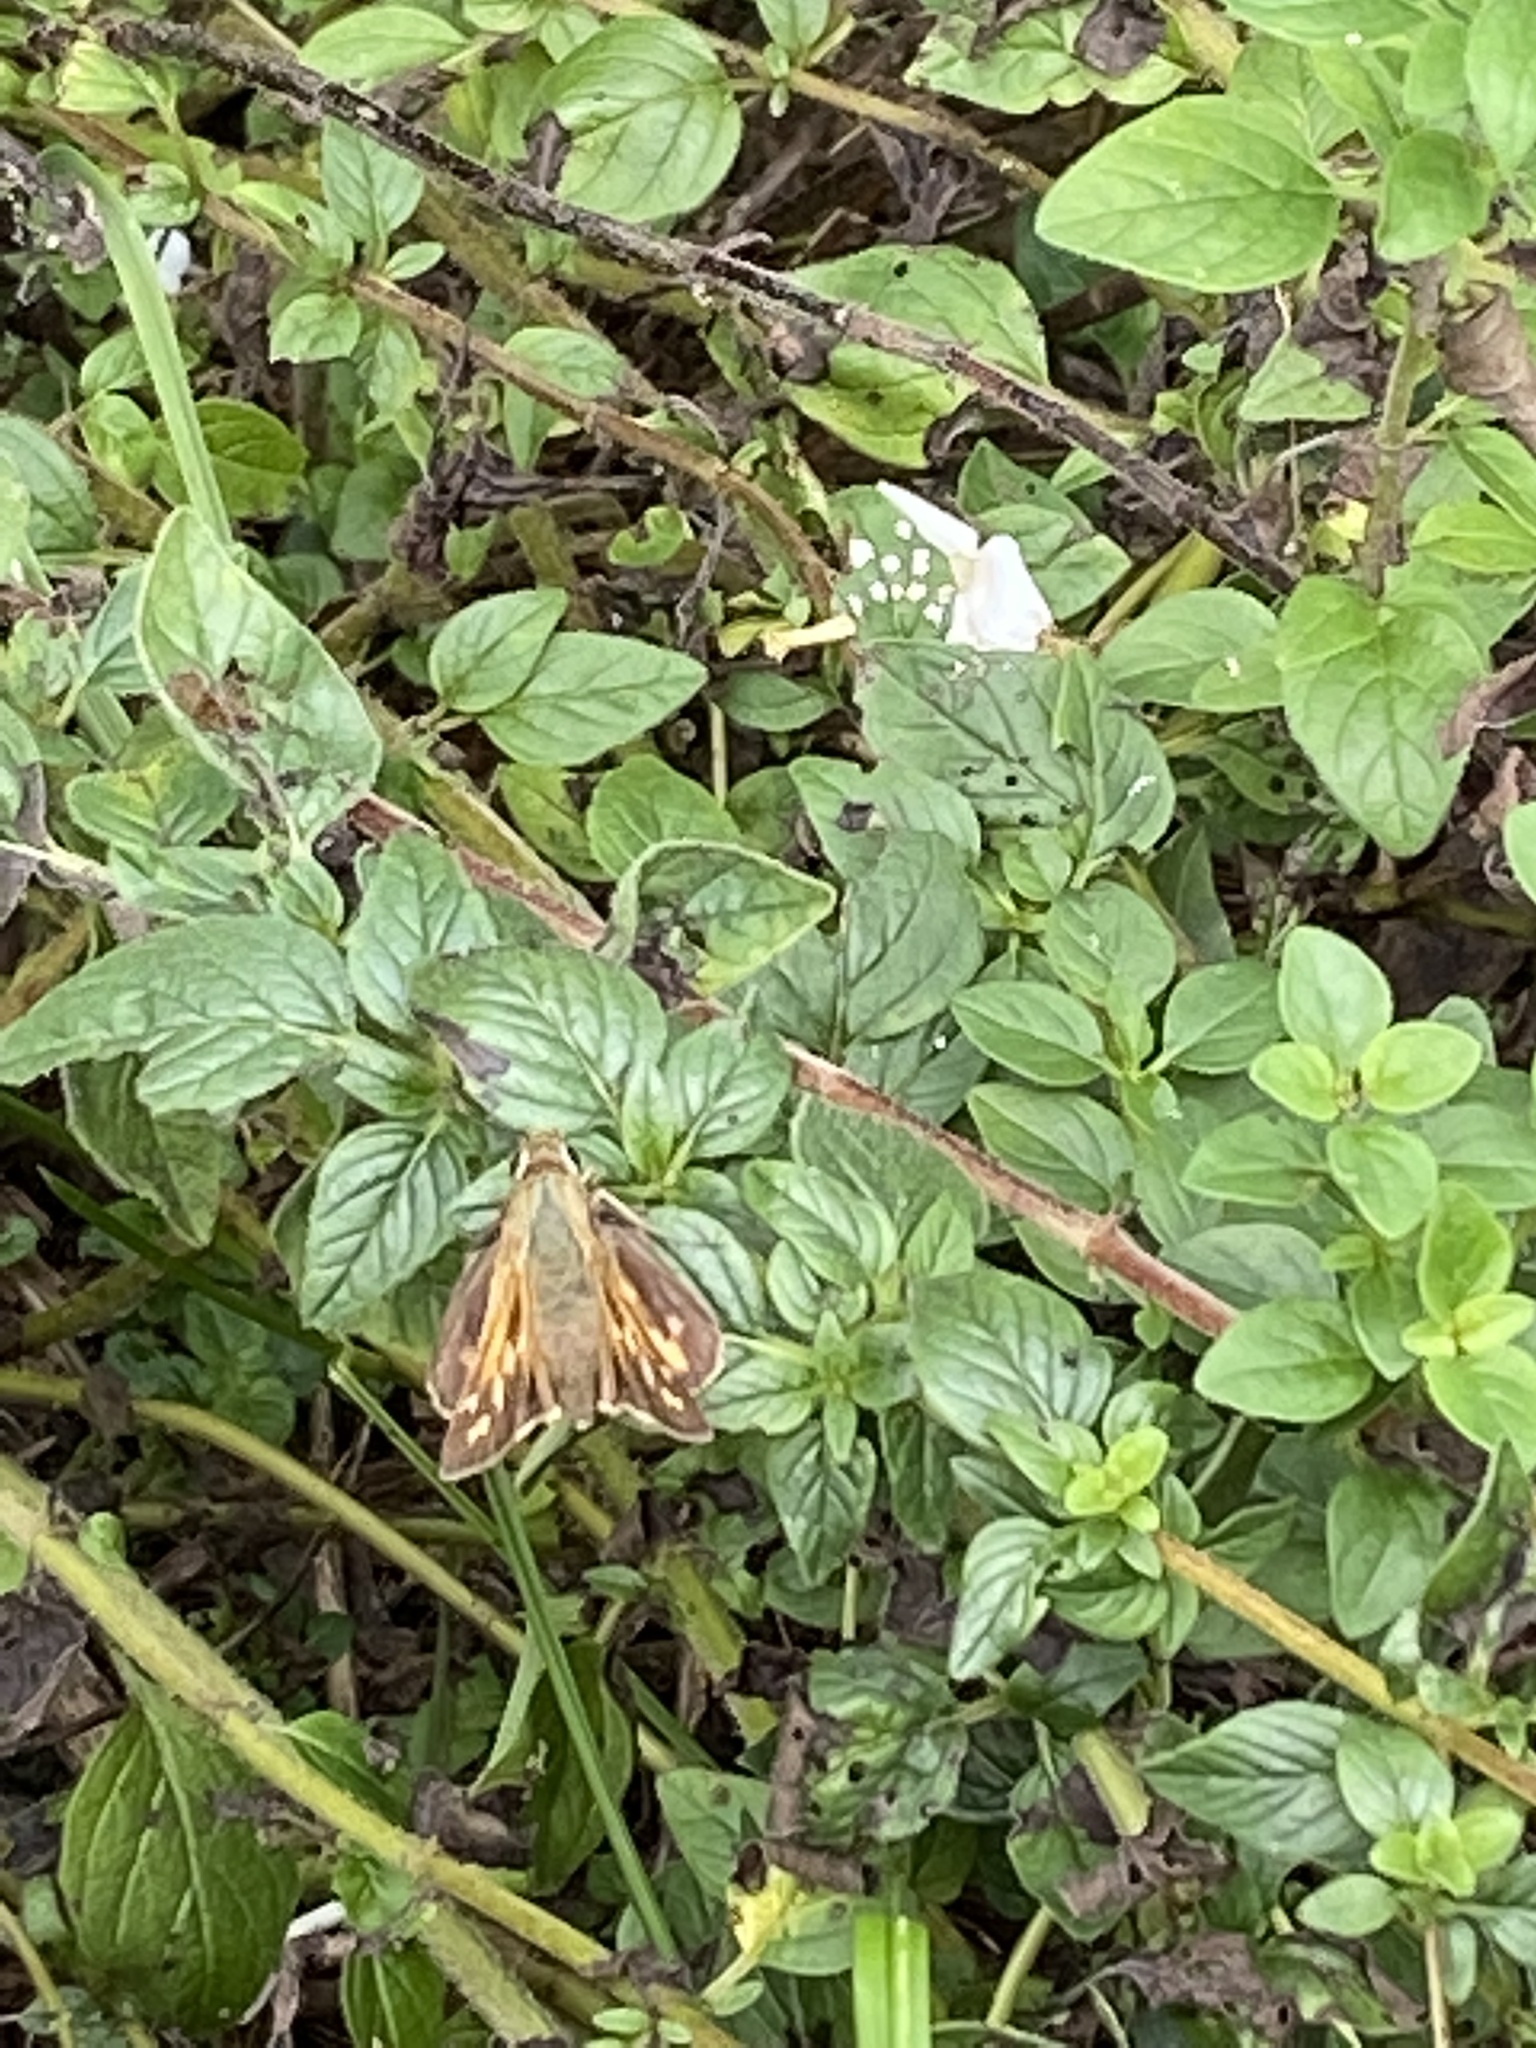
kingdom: Animalia
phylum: Arthropoda
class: Insecta
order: Lepidoptera
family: Hesperiidae
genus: Atalopedes
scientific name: Atalopedes
